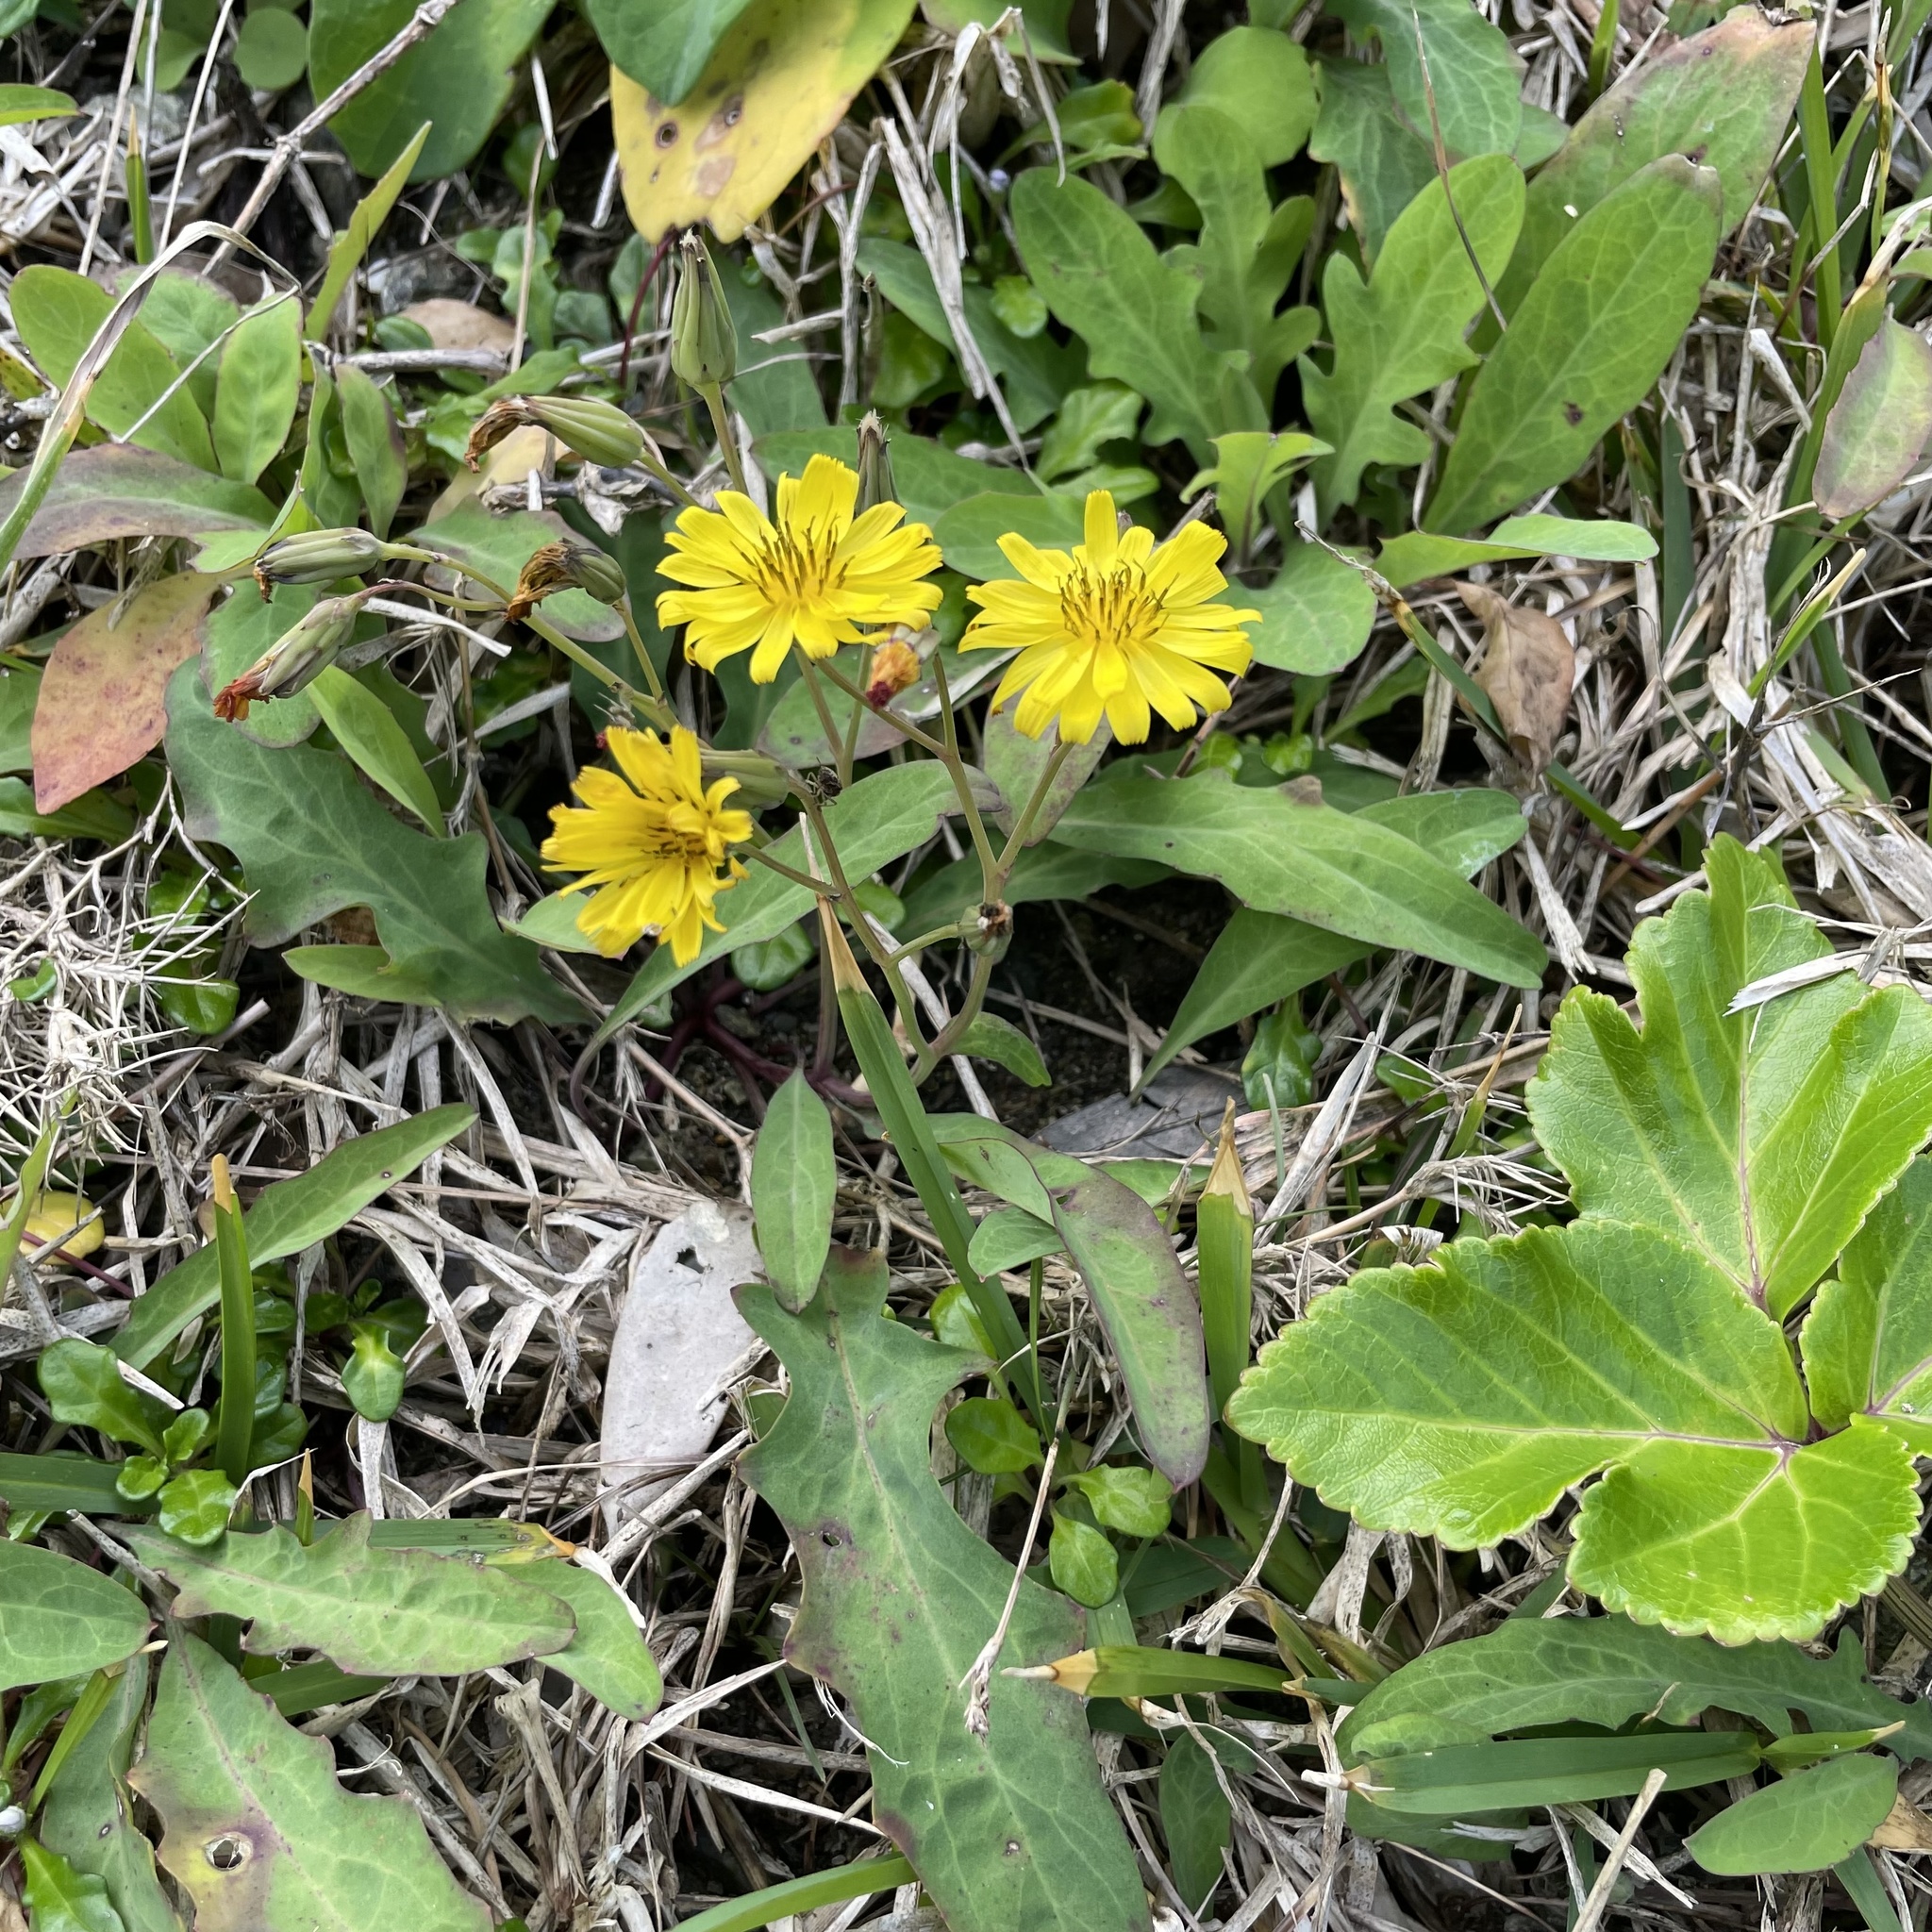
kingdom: Plantae
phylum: Tracheophyta
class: Magnoliopsida
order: Asterales
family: Asteraceae
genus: Ixeris
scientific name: Ixeris japonica
